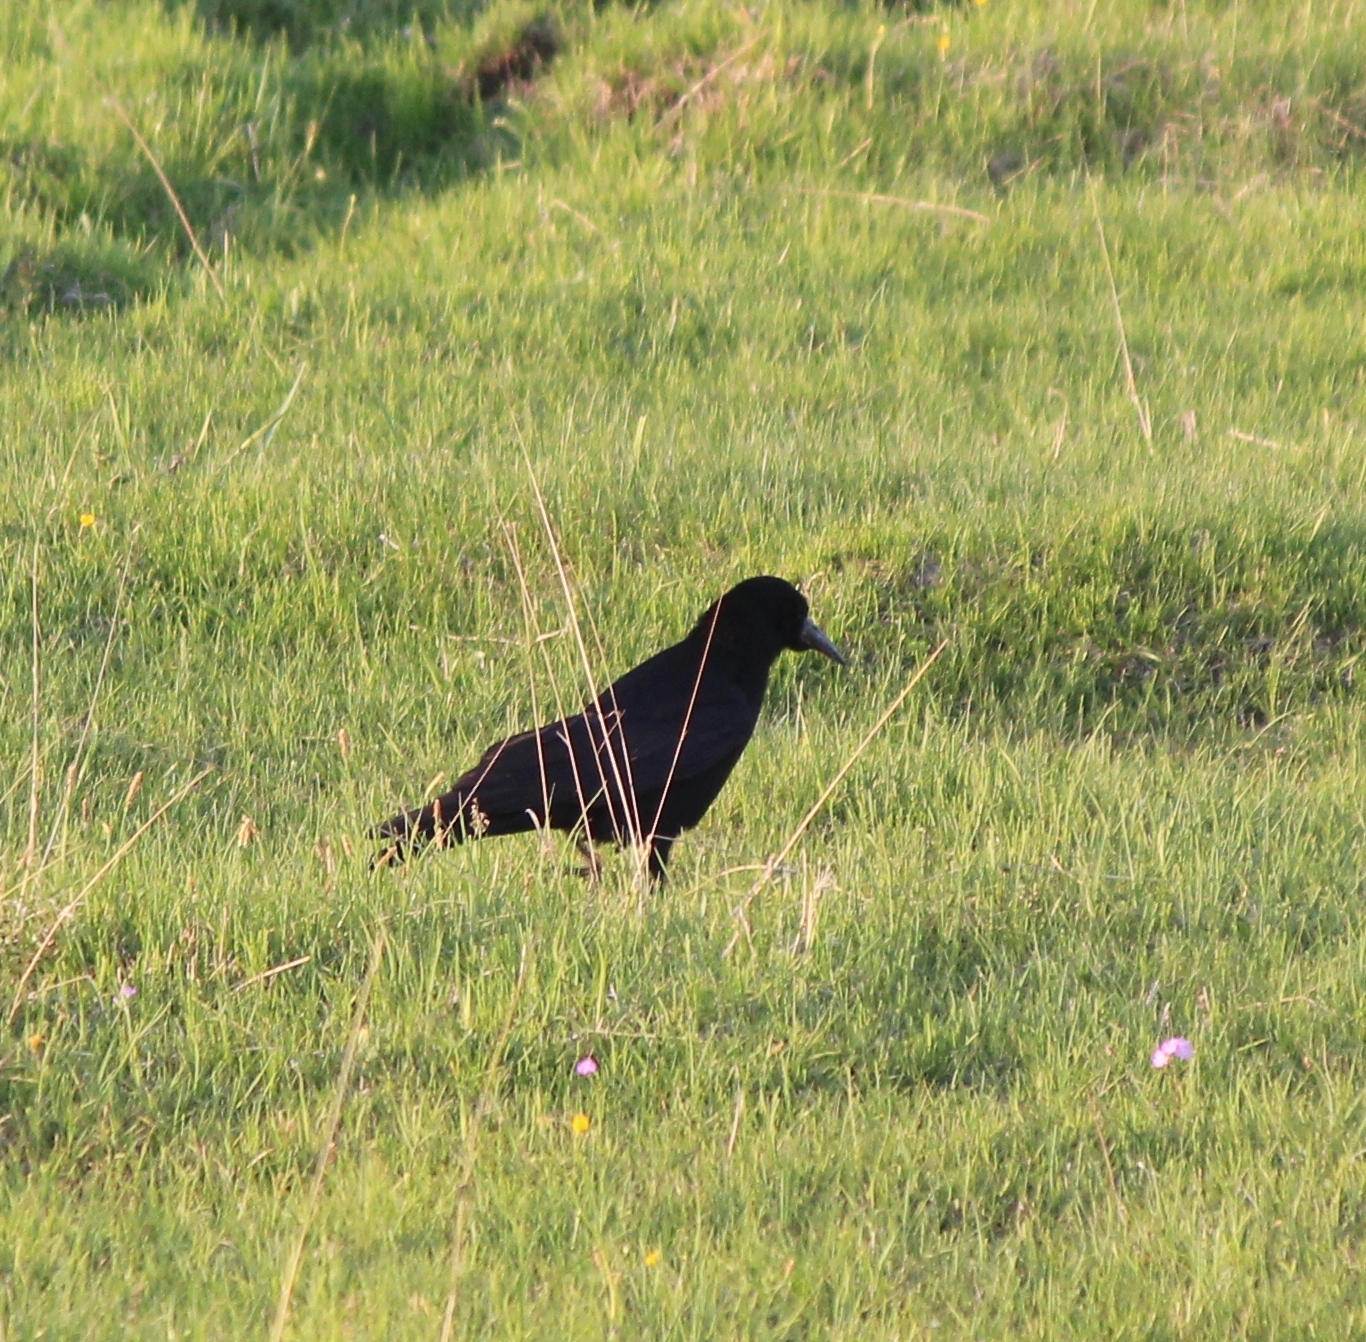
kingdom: Animalia
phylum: Chordata
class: Aves
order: Passeriformes
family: Corvidae
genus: Corvus
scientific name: Corvus frugilegus
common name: Rook
